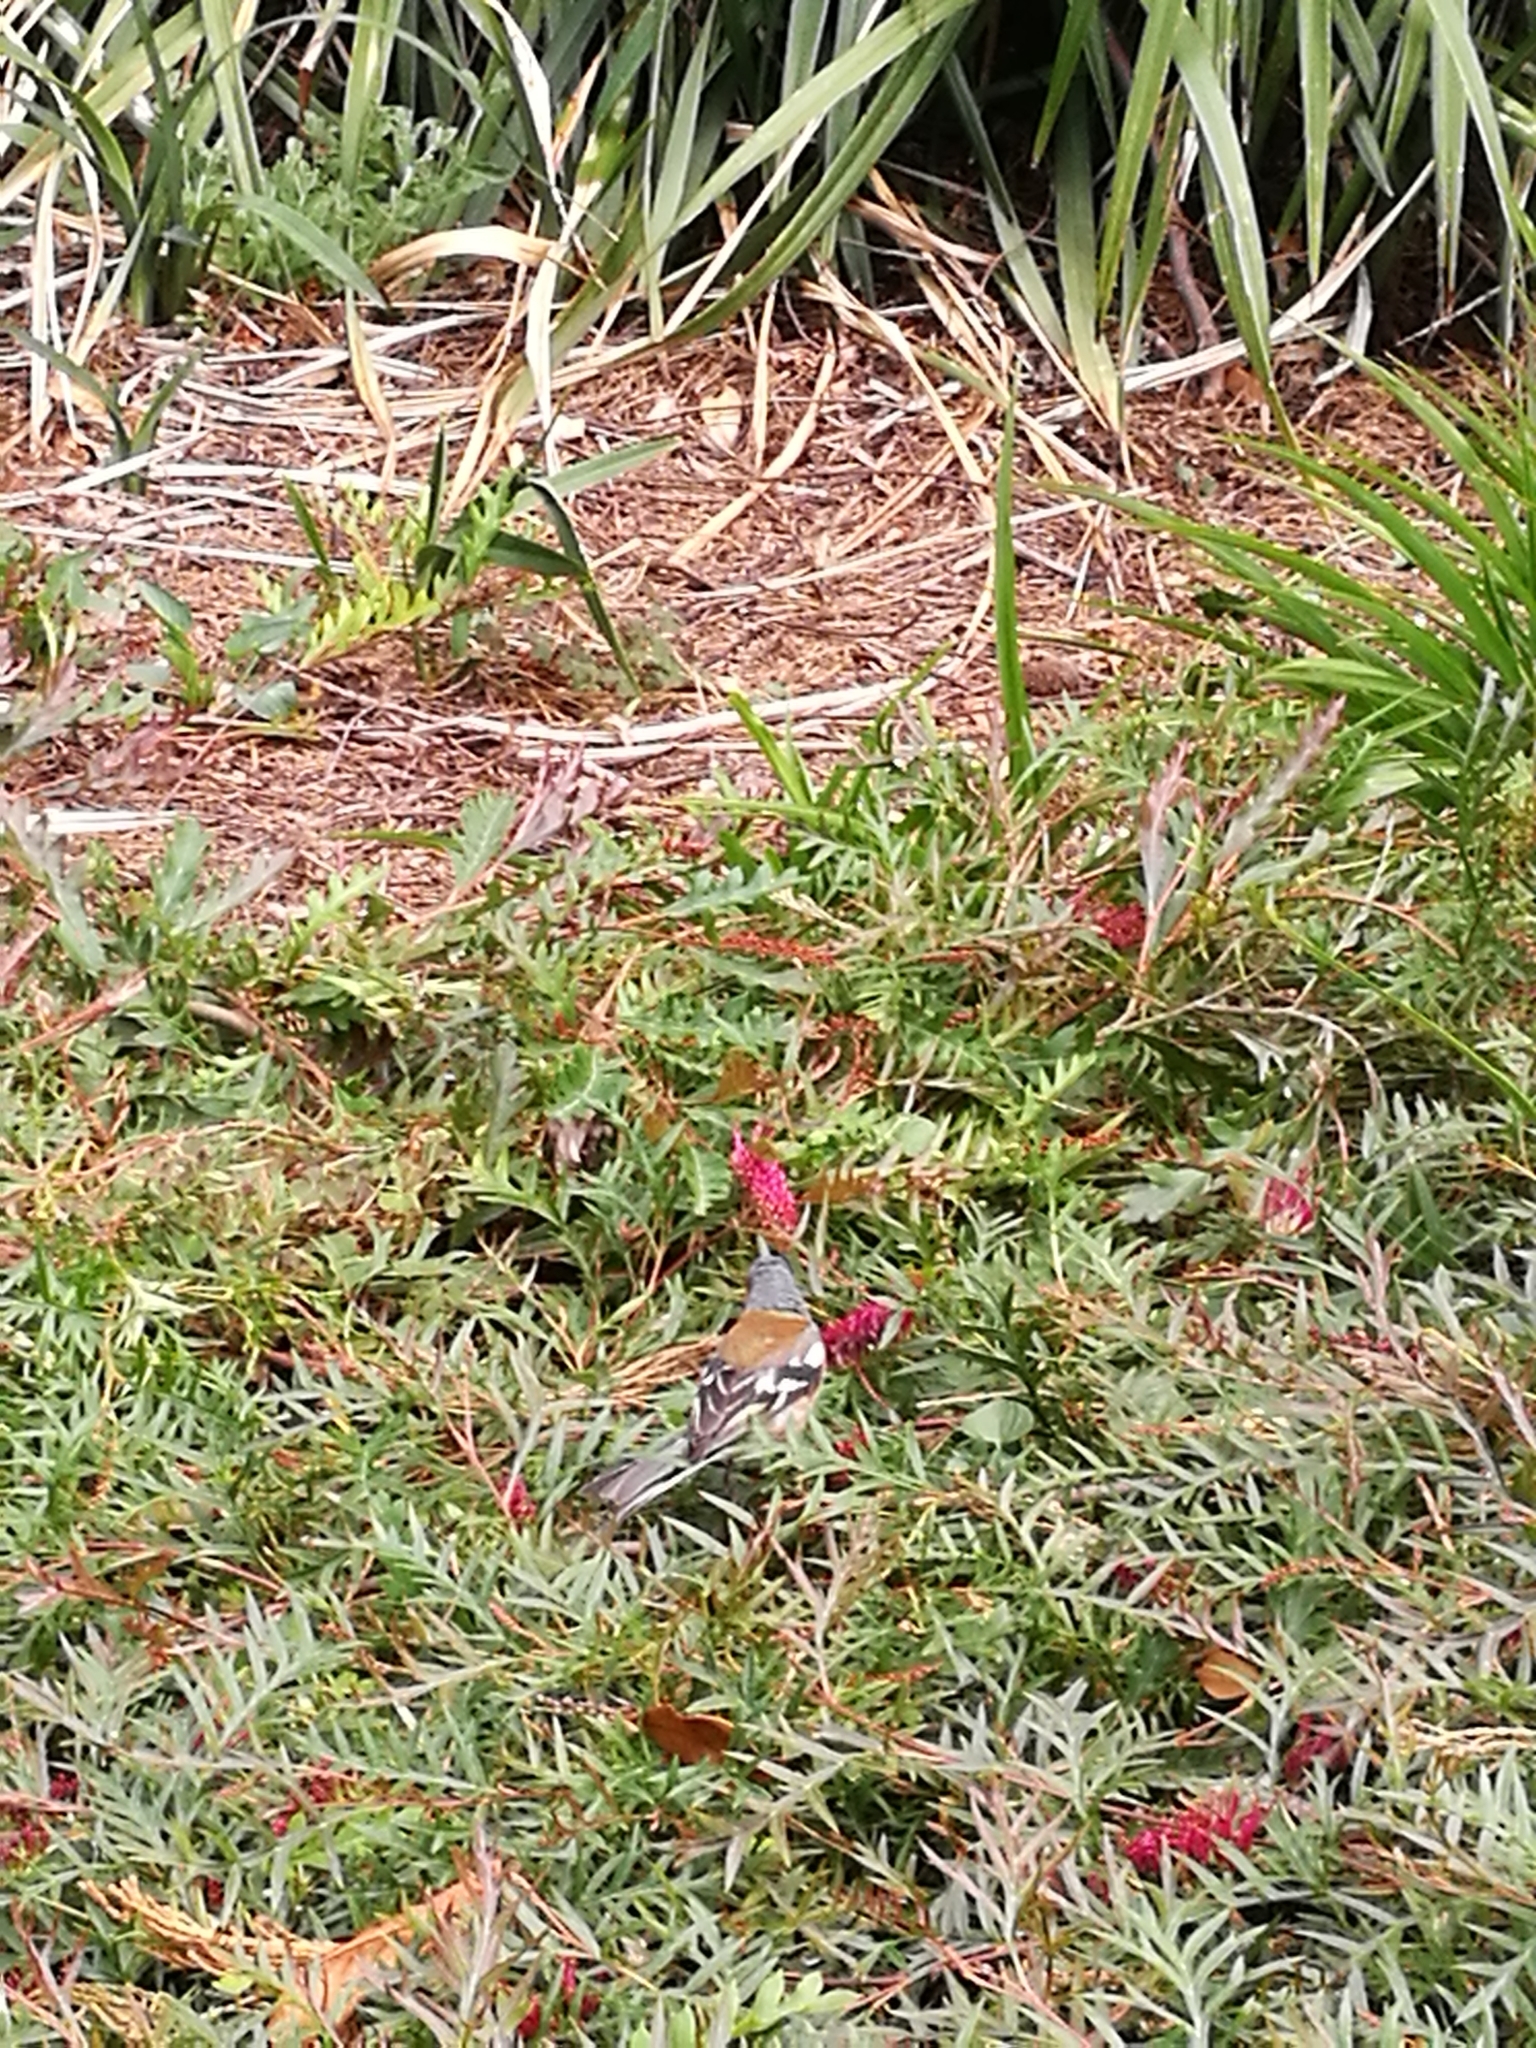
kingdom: Animalia
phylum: Chordata
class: Aves
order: Passeriformes
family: Fringillidae
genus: Fringilla
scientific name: Fringilla coelebs
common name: Common chaffinch
